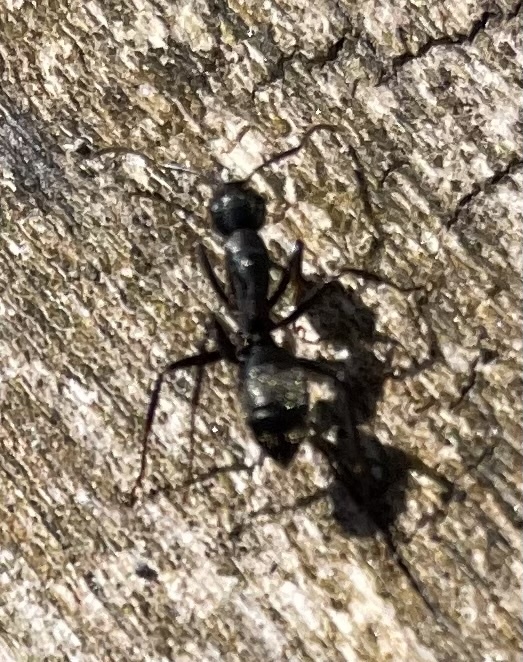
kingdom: Animalia
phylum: Arthropoda
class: Insecta
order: Hymenoptera
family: Formicidae
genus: Camponotus
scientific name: Camponotus pennsylvanicus
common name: Black carpenter ant
